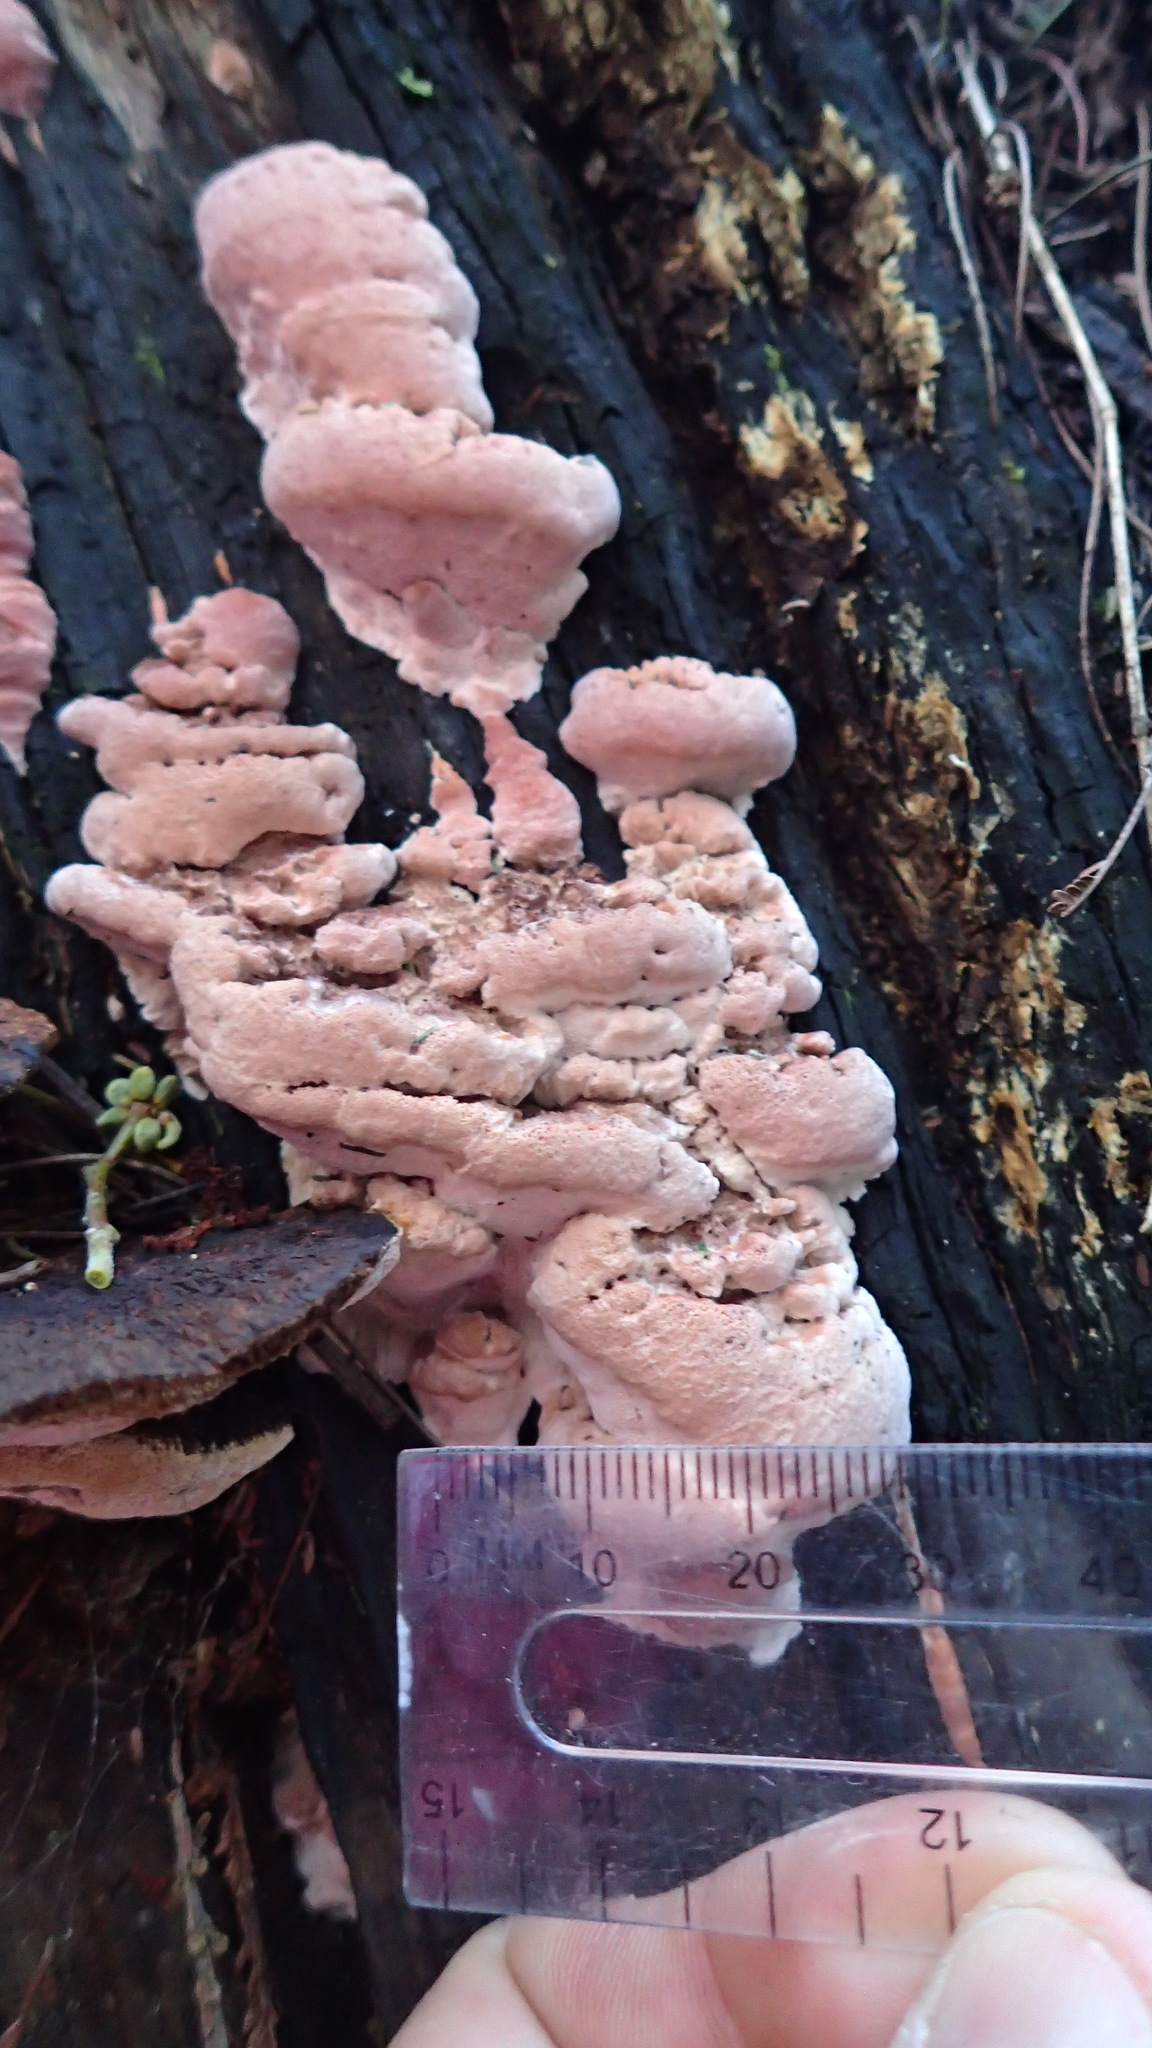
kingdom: Fungi
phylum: Basidiomycota
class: Agaricomycetes
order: Polyporales
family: Fomitopsidaceae
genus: Rhodofomitopsis
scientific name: Rhodofomitopsis lilacinogilva
